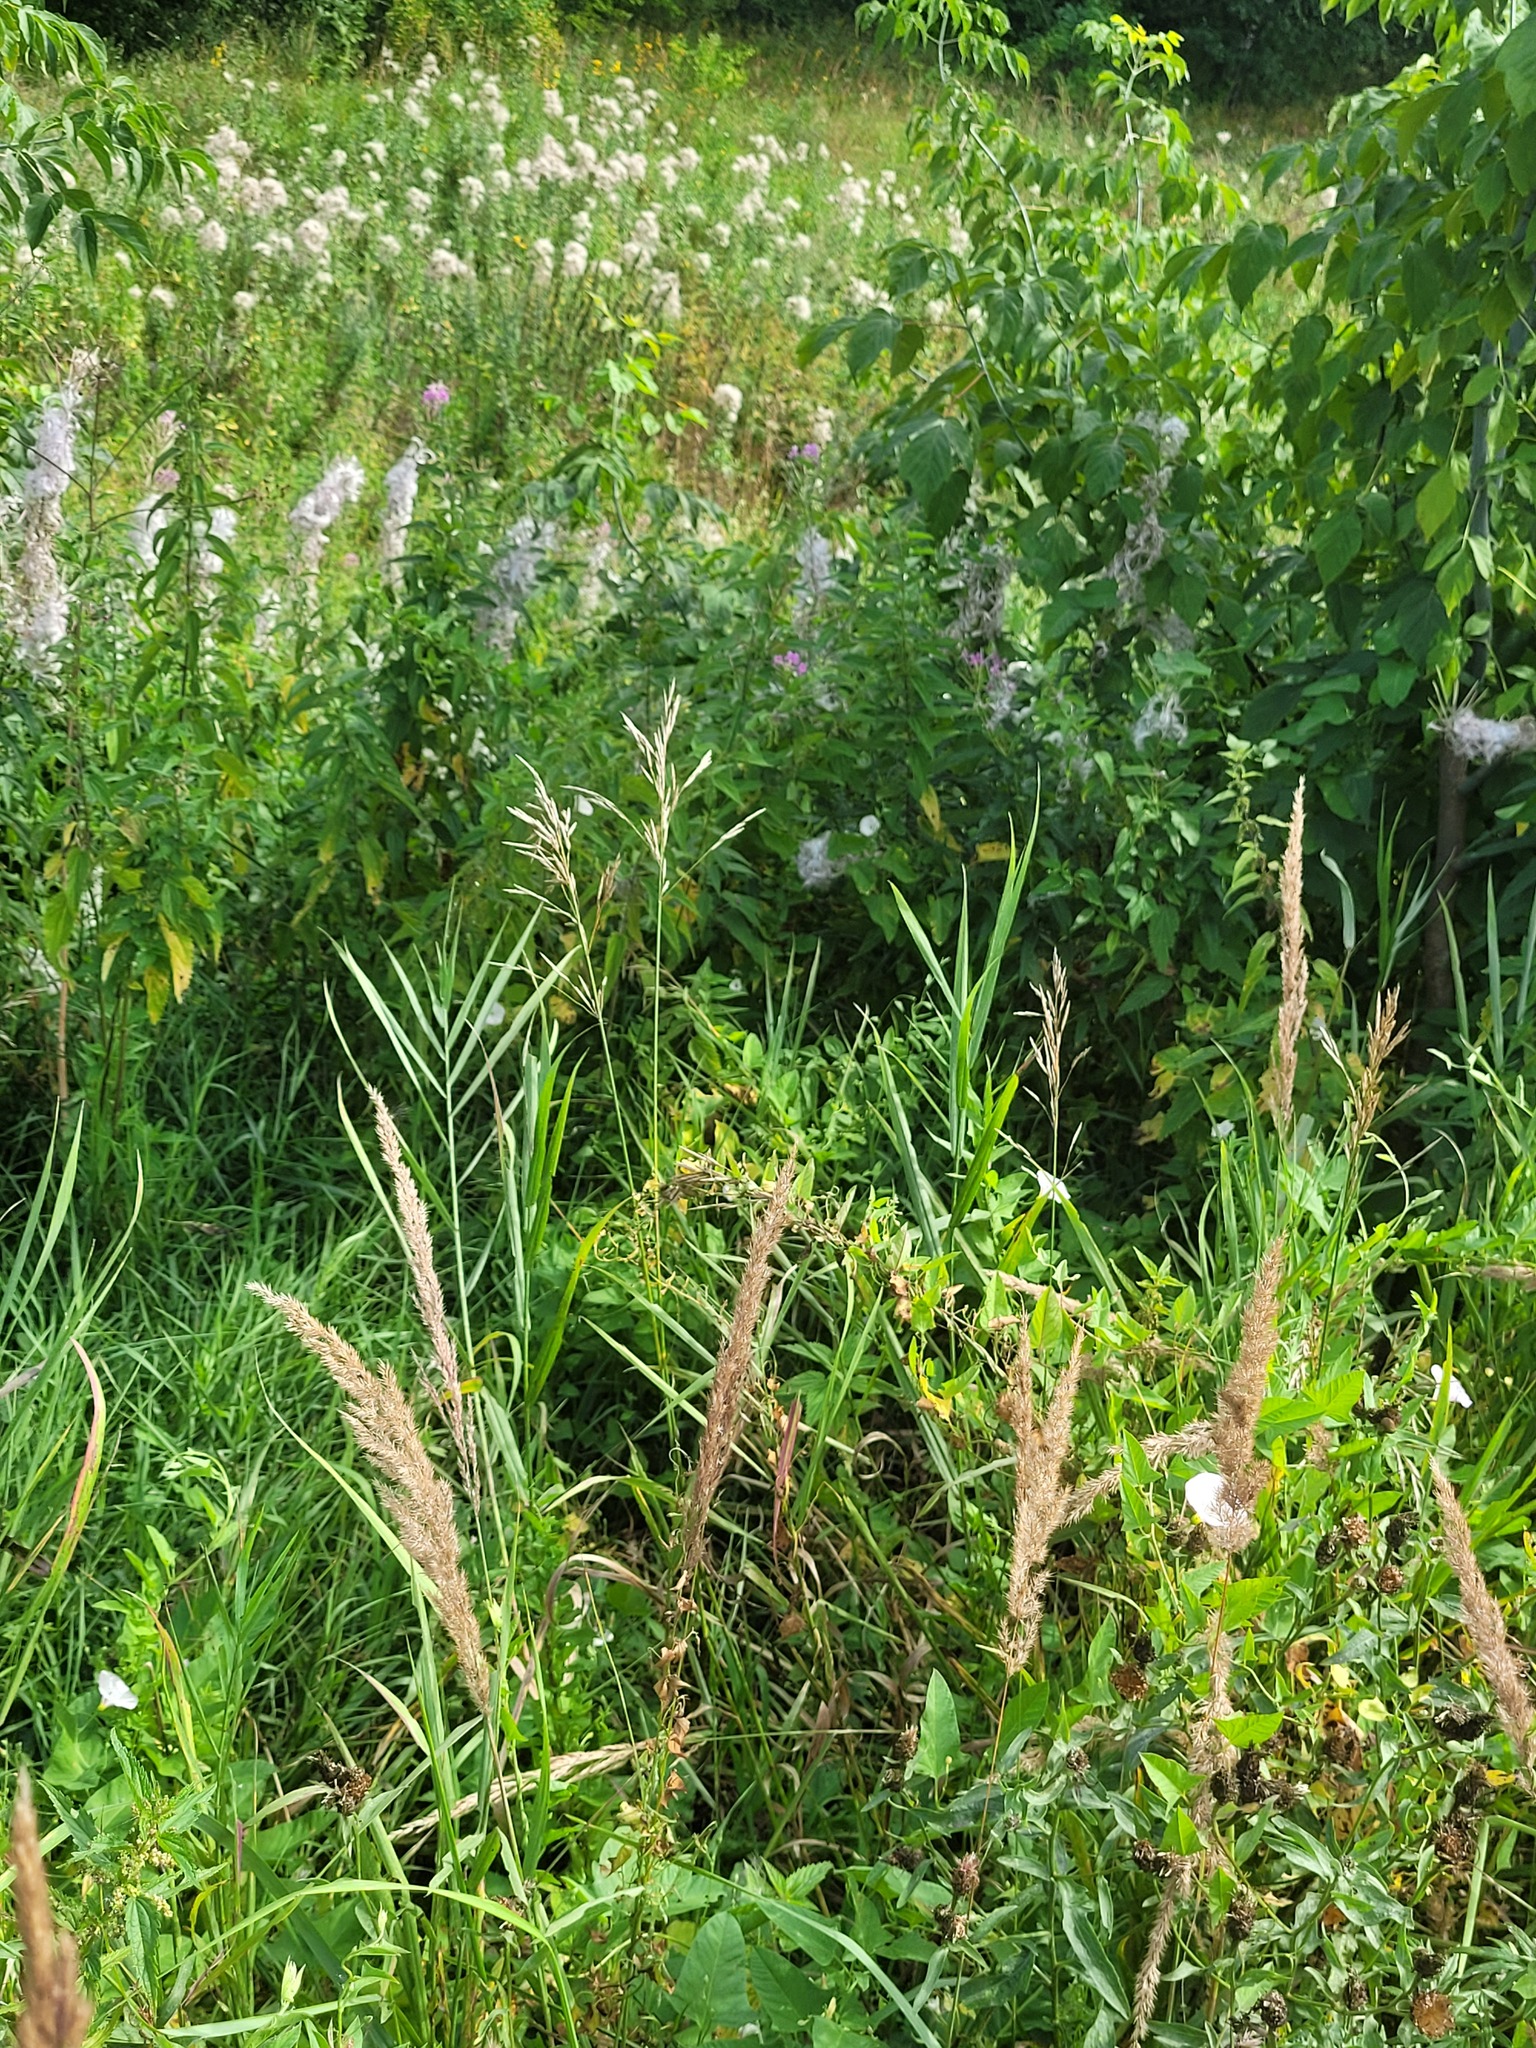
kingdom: Plantae
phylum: Tracheophyta
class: Liliopsida
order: Poales
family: Poaceae
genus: Bromus
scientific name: Bromus inermis
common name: Smooth brome
